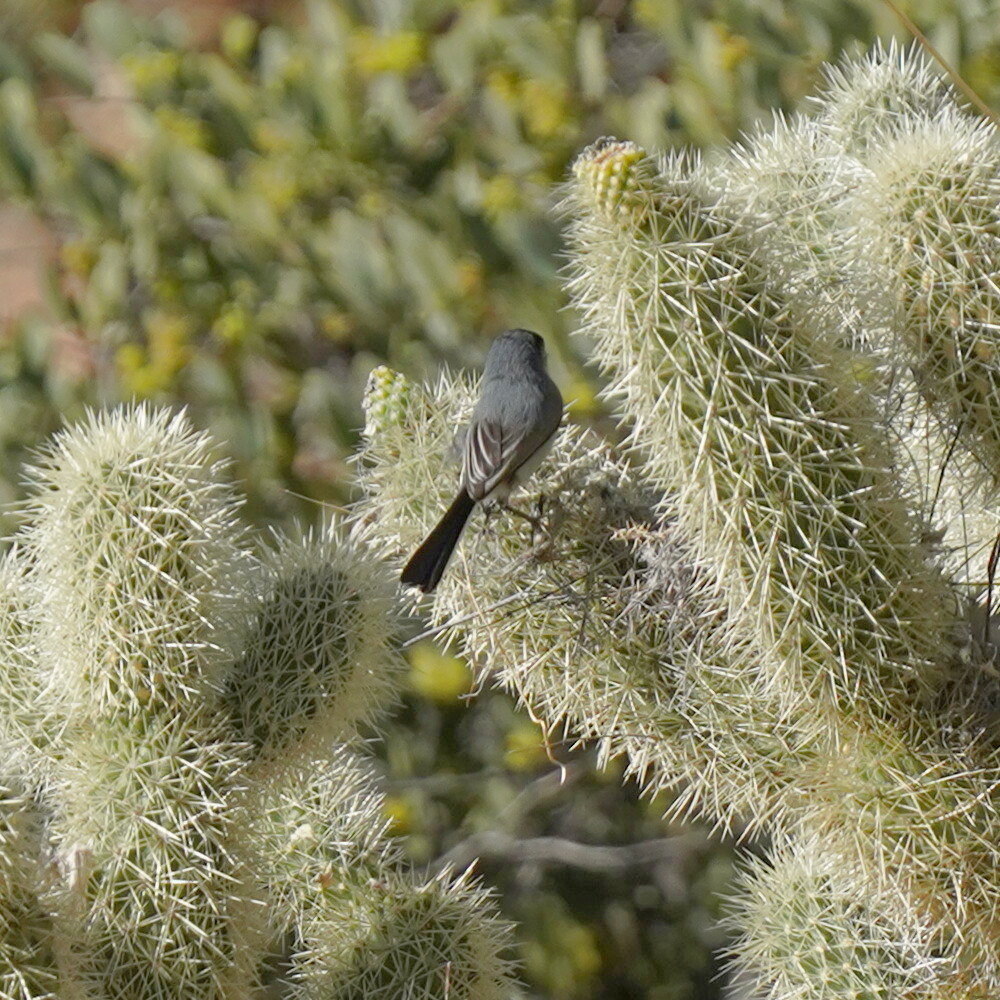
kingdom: Animalia
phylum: Chordata
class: Aves
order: Passeriformes
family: Polioptilidae
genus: Polioptila
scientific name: Polioptila melanura
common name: Black-tailed gnatcatcher
